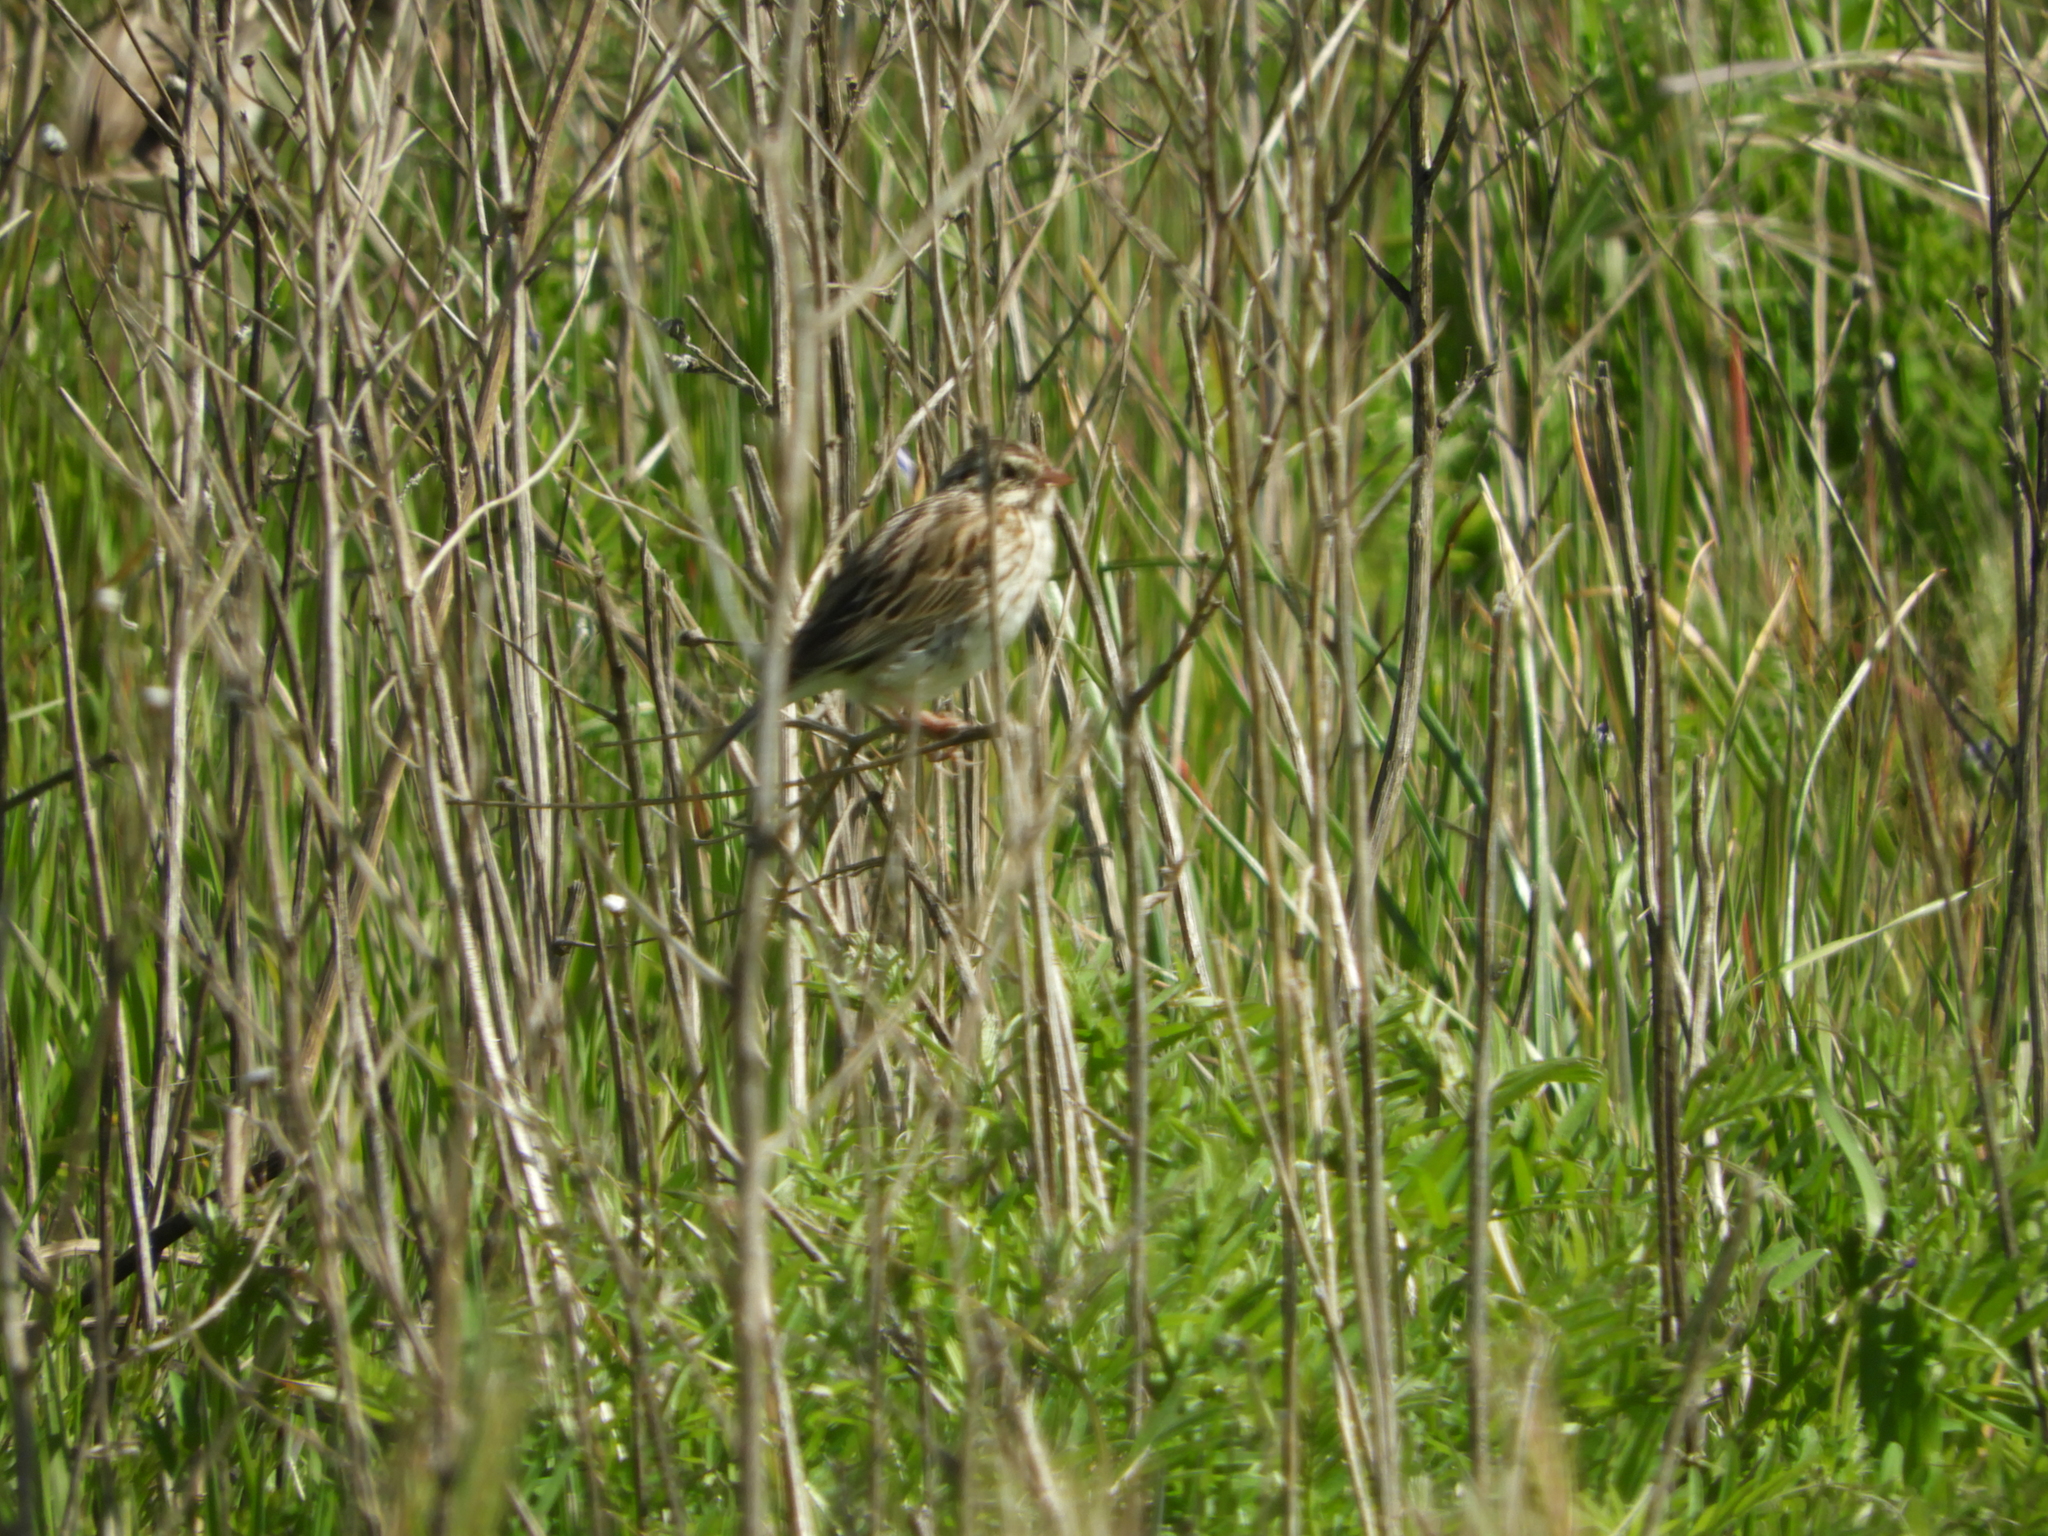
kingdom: Animalia
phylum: Chordata
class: Aves
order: Passeriformes
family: Passerellidae
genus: Passerculus
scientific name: Passerculus sandwichensis
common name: Savannah sparrow
